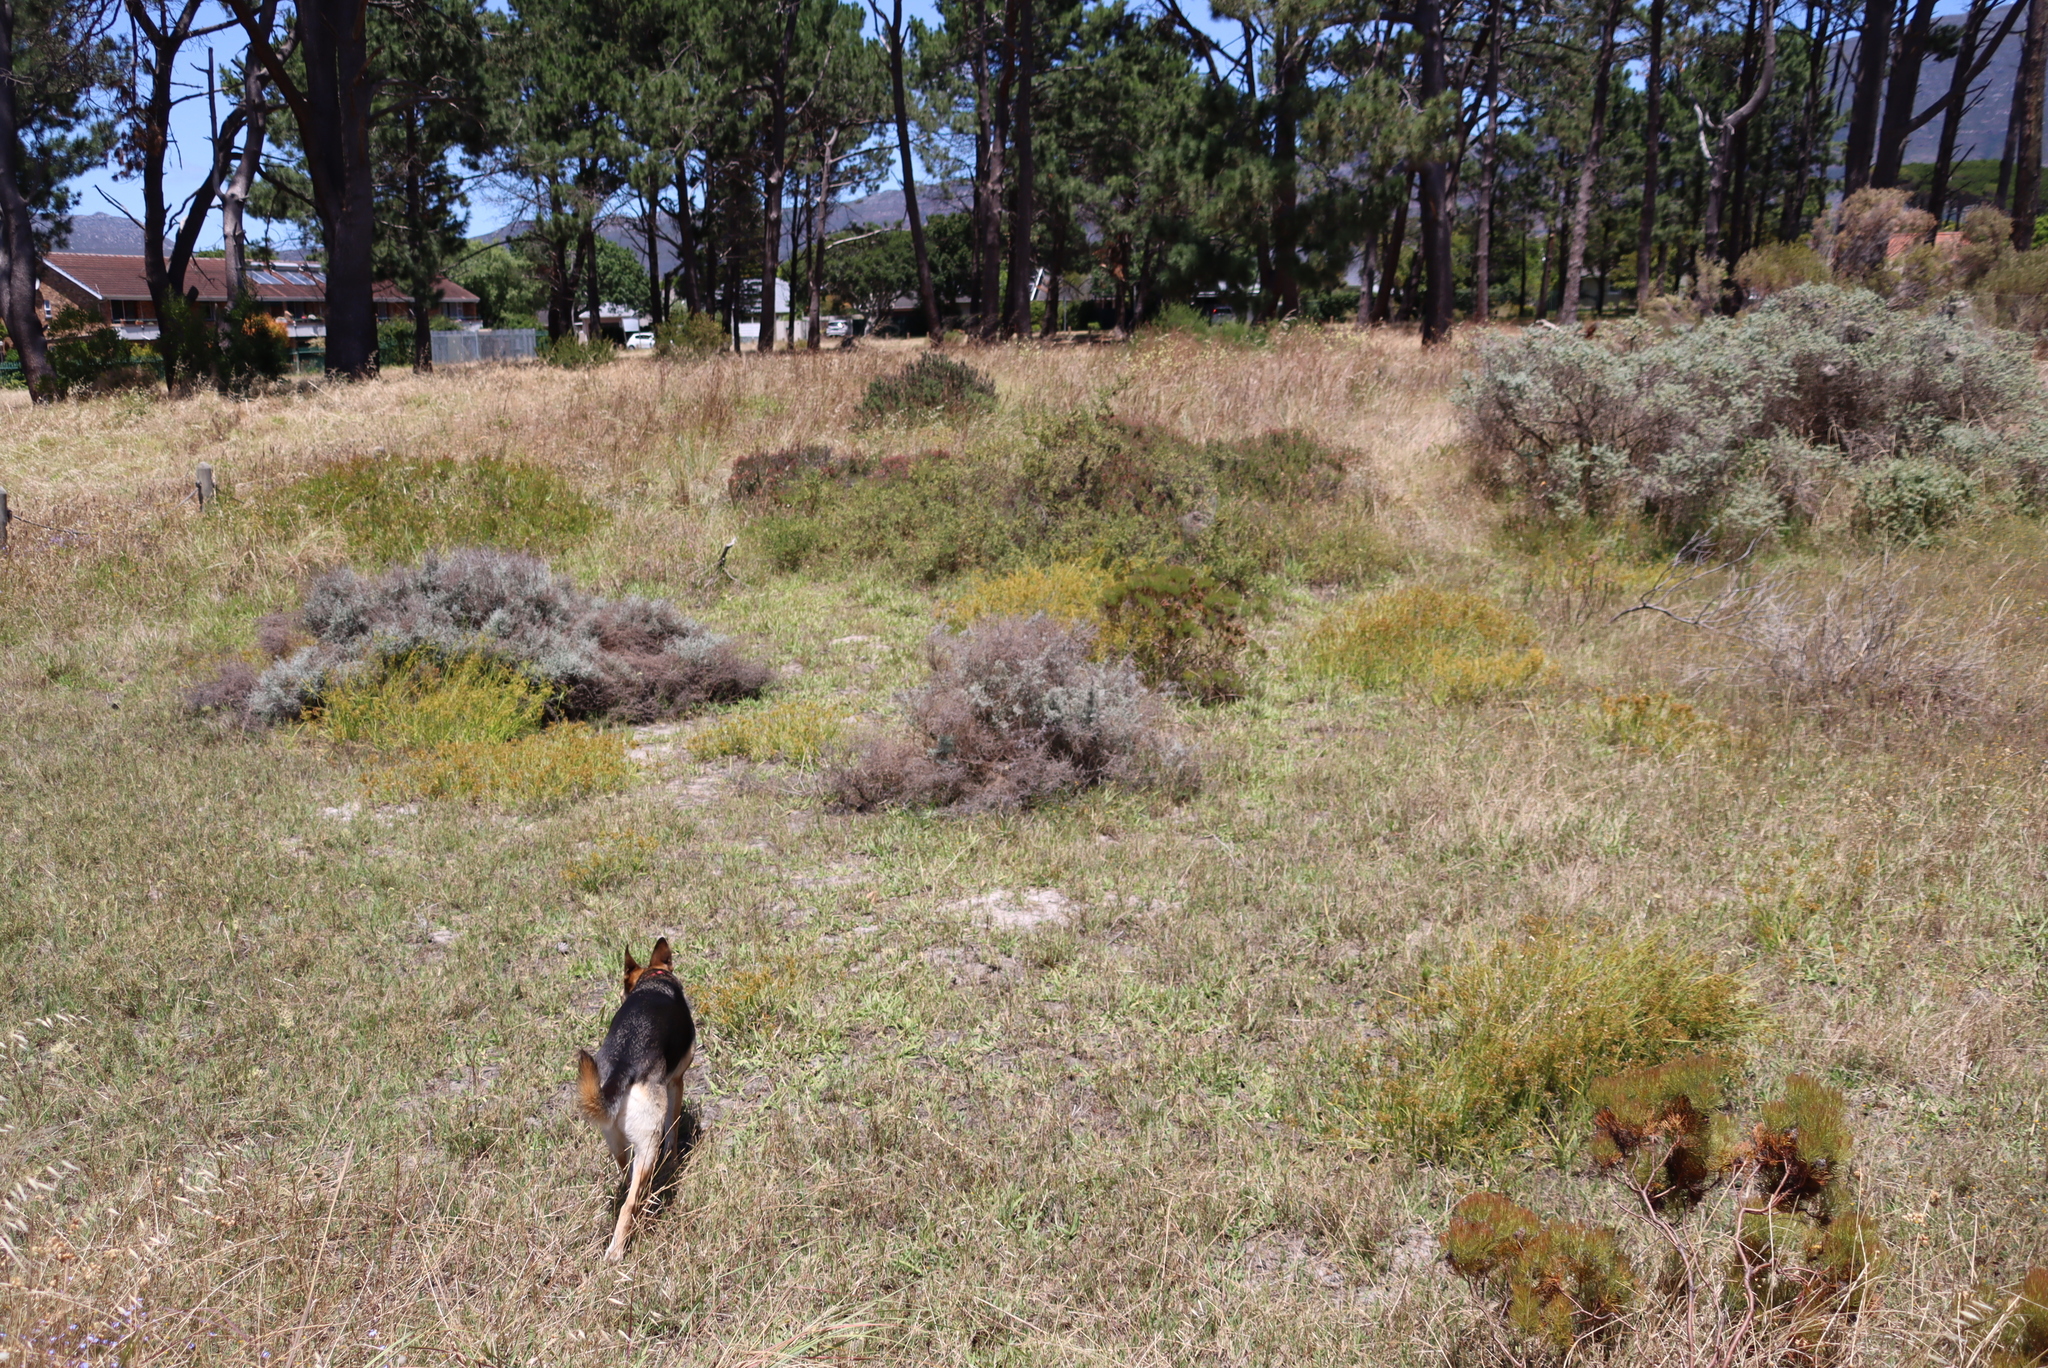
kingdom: Plantae
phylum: Tracheophyta
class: Magnoliopsida
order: Asterales
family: Asteraceae
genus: Seriphium
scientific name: Seriphium plumosum
